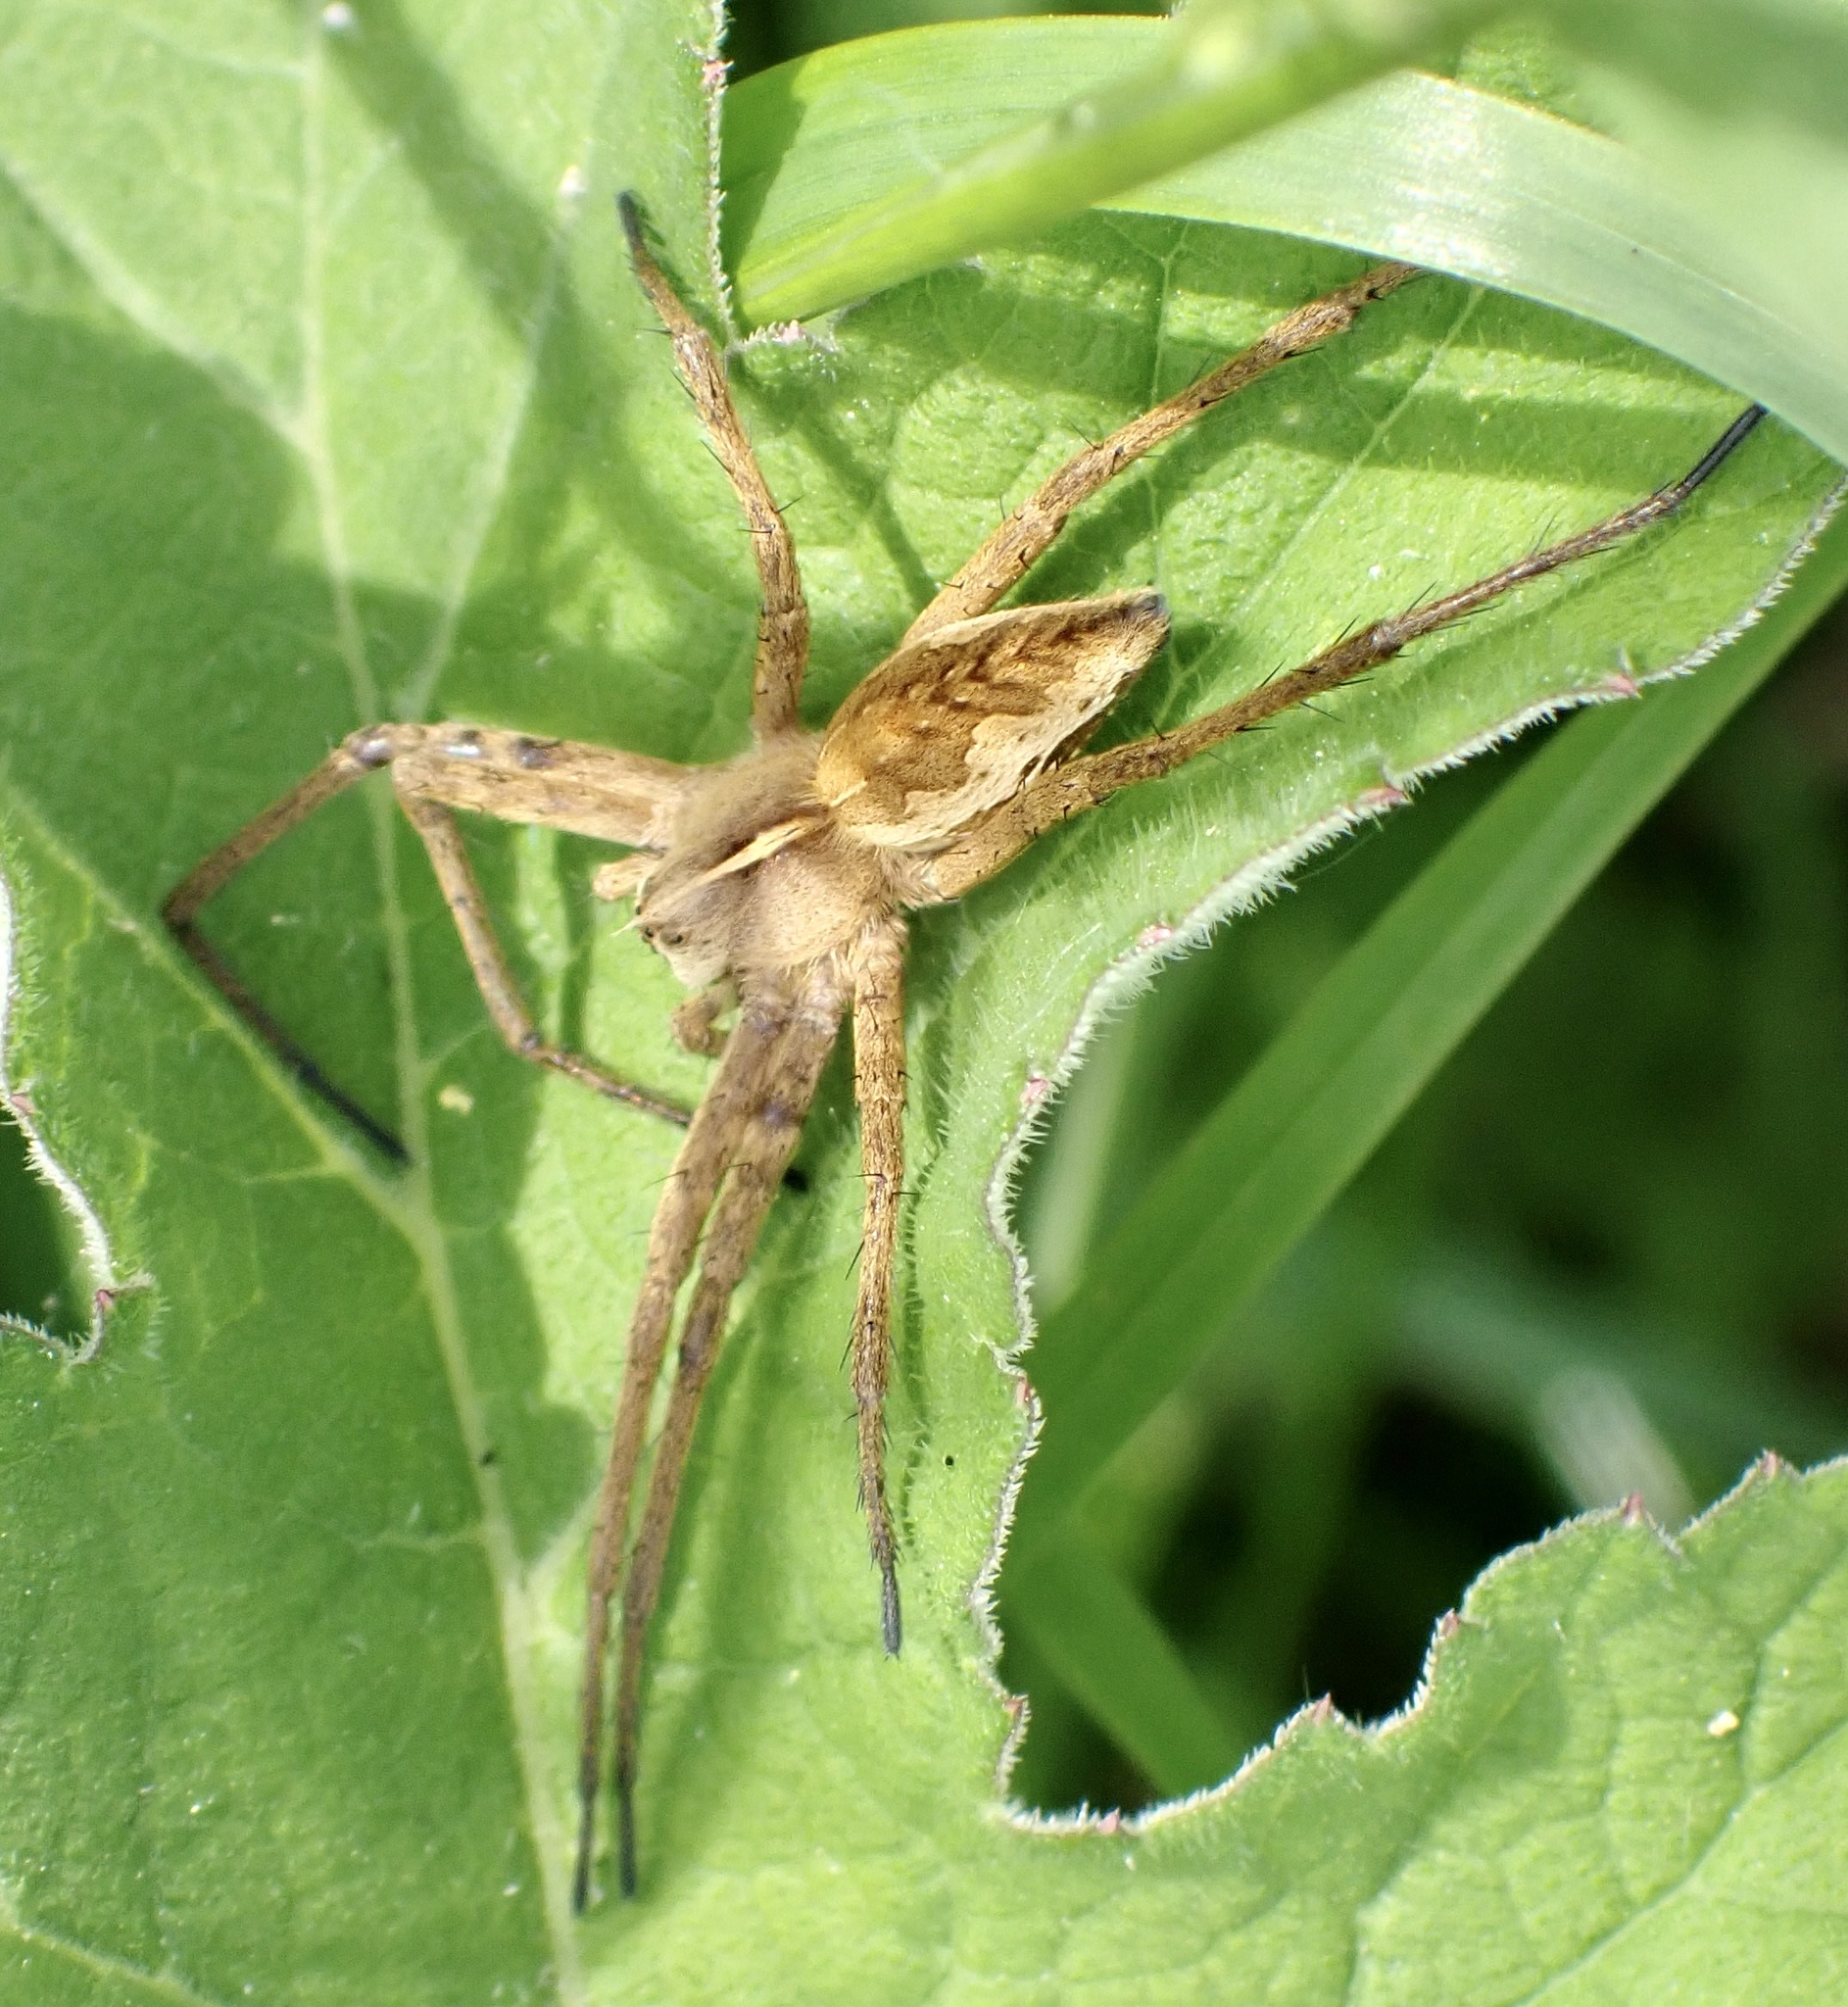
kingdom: Animalia
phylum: Arthropoda
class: Arachnida
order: Araneae
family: Pisauridae
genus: Pisaura
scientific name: Pisaura mirabilis
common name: Tent spider
